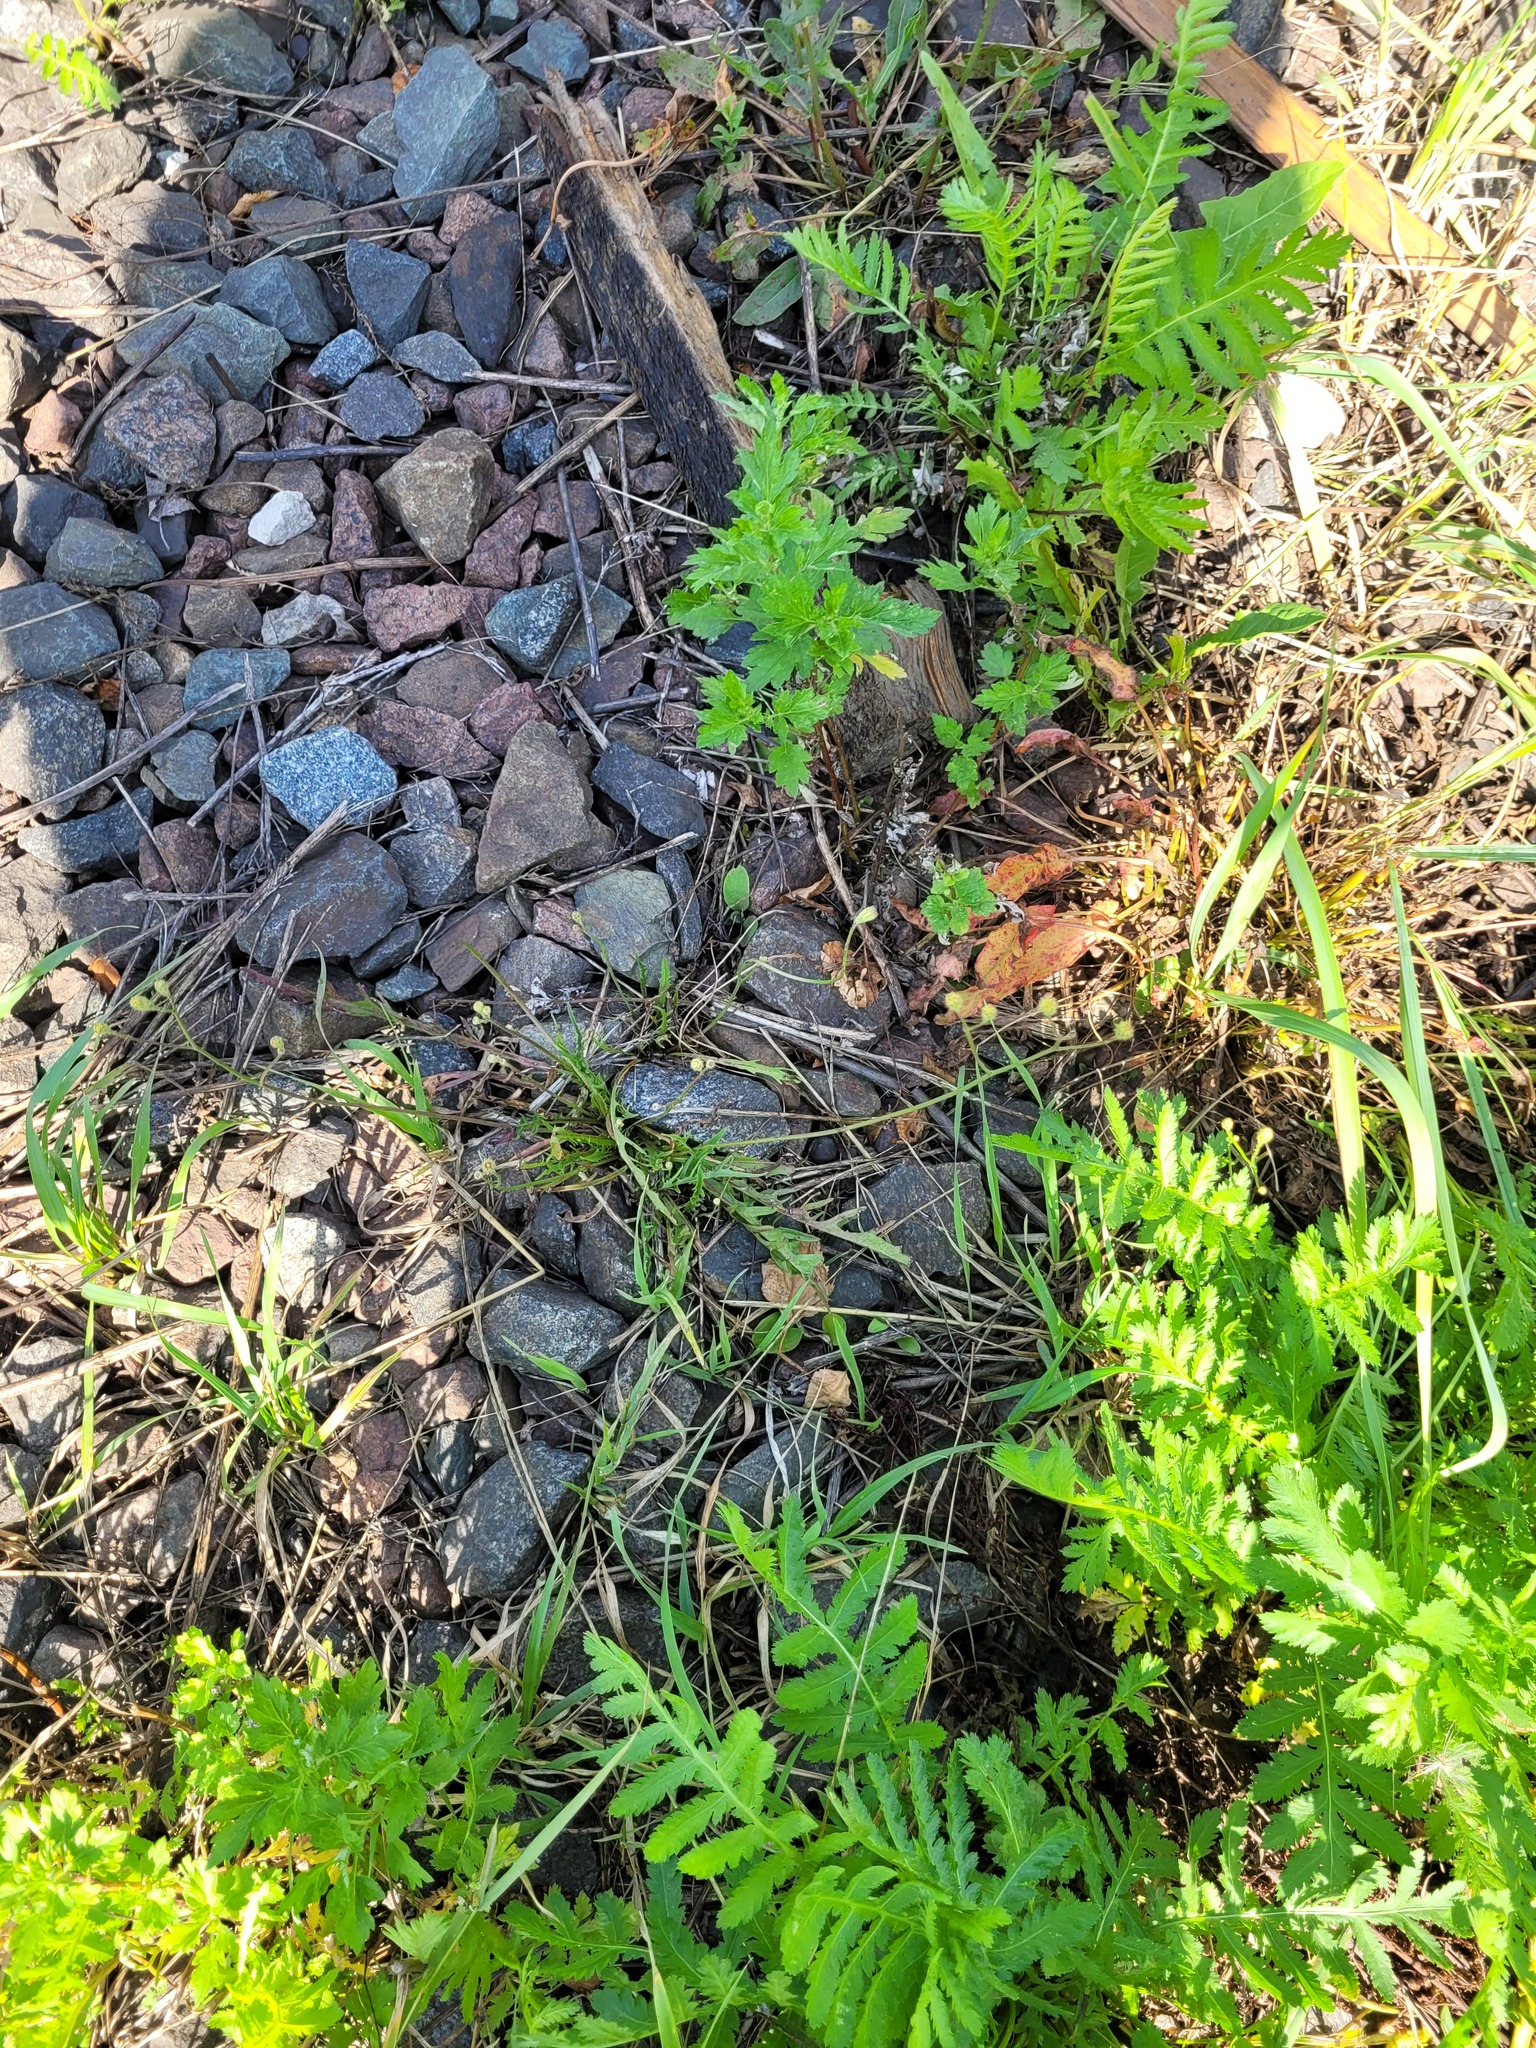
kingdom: Plantae
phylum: Tracheophyta
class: Magnoliopsida
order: Asterales
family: Asteraceae
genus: Scorzoneroides
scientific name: Scorzoneroides autumnalis
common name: Autumn hawkbit
